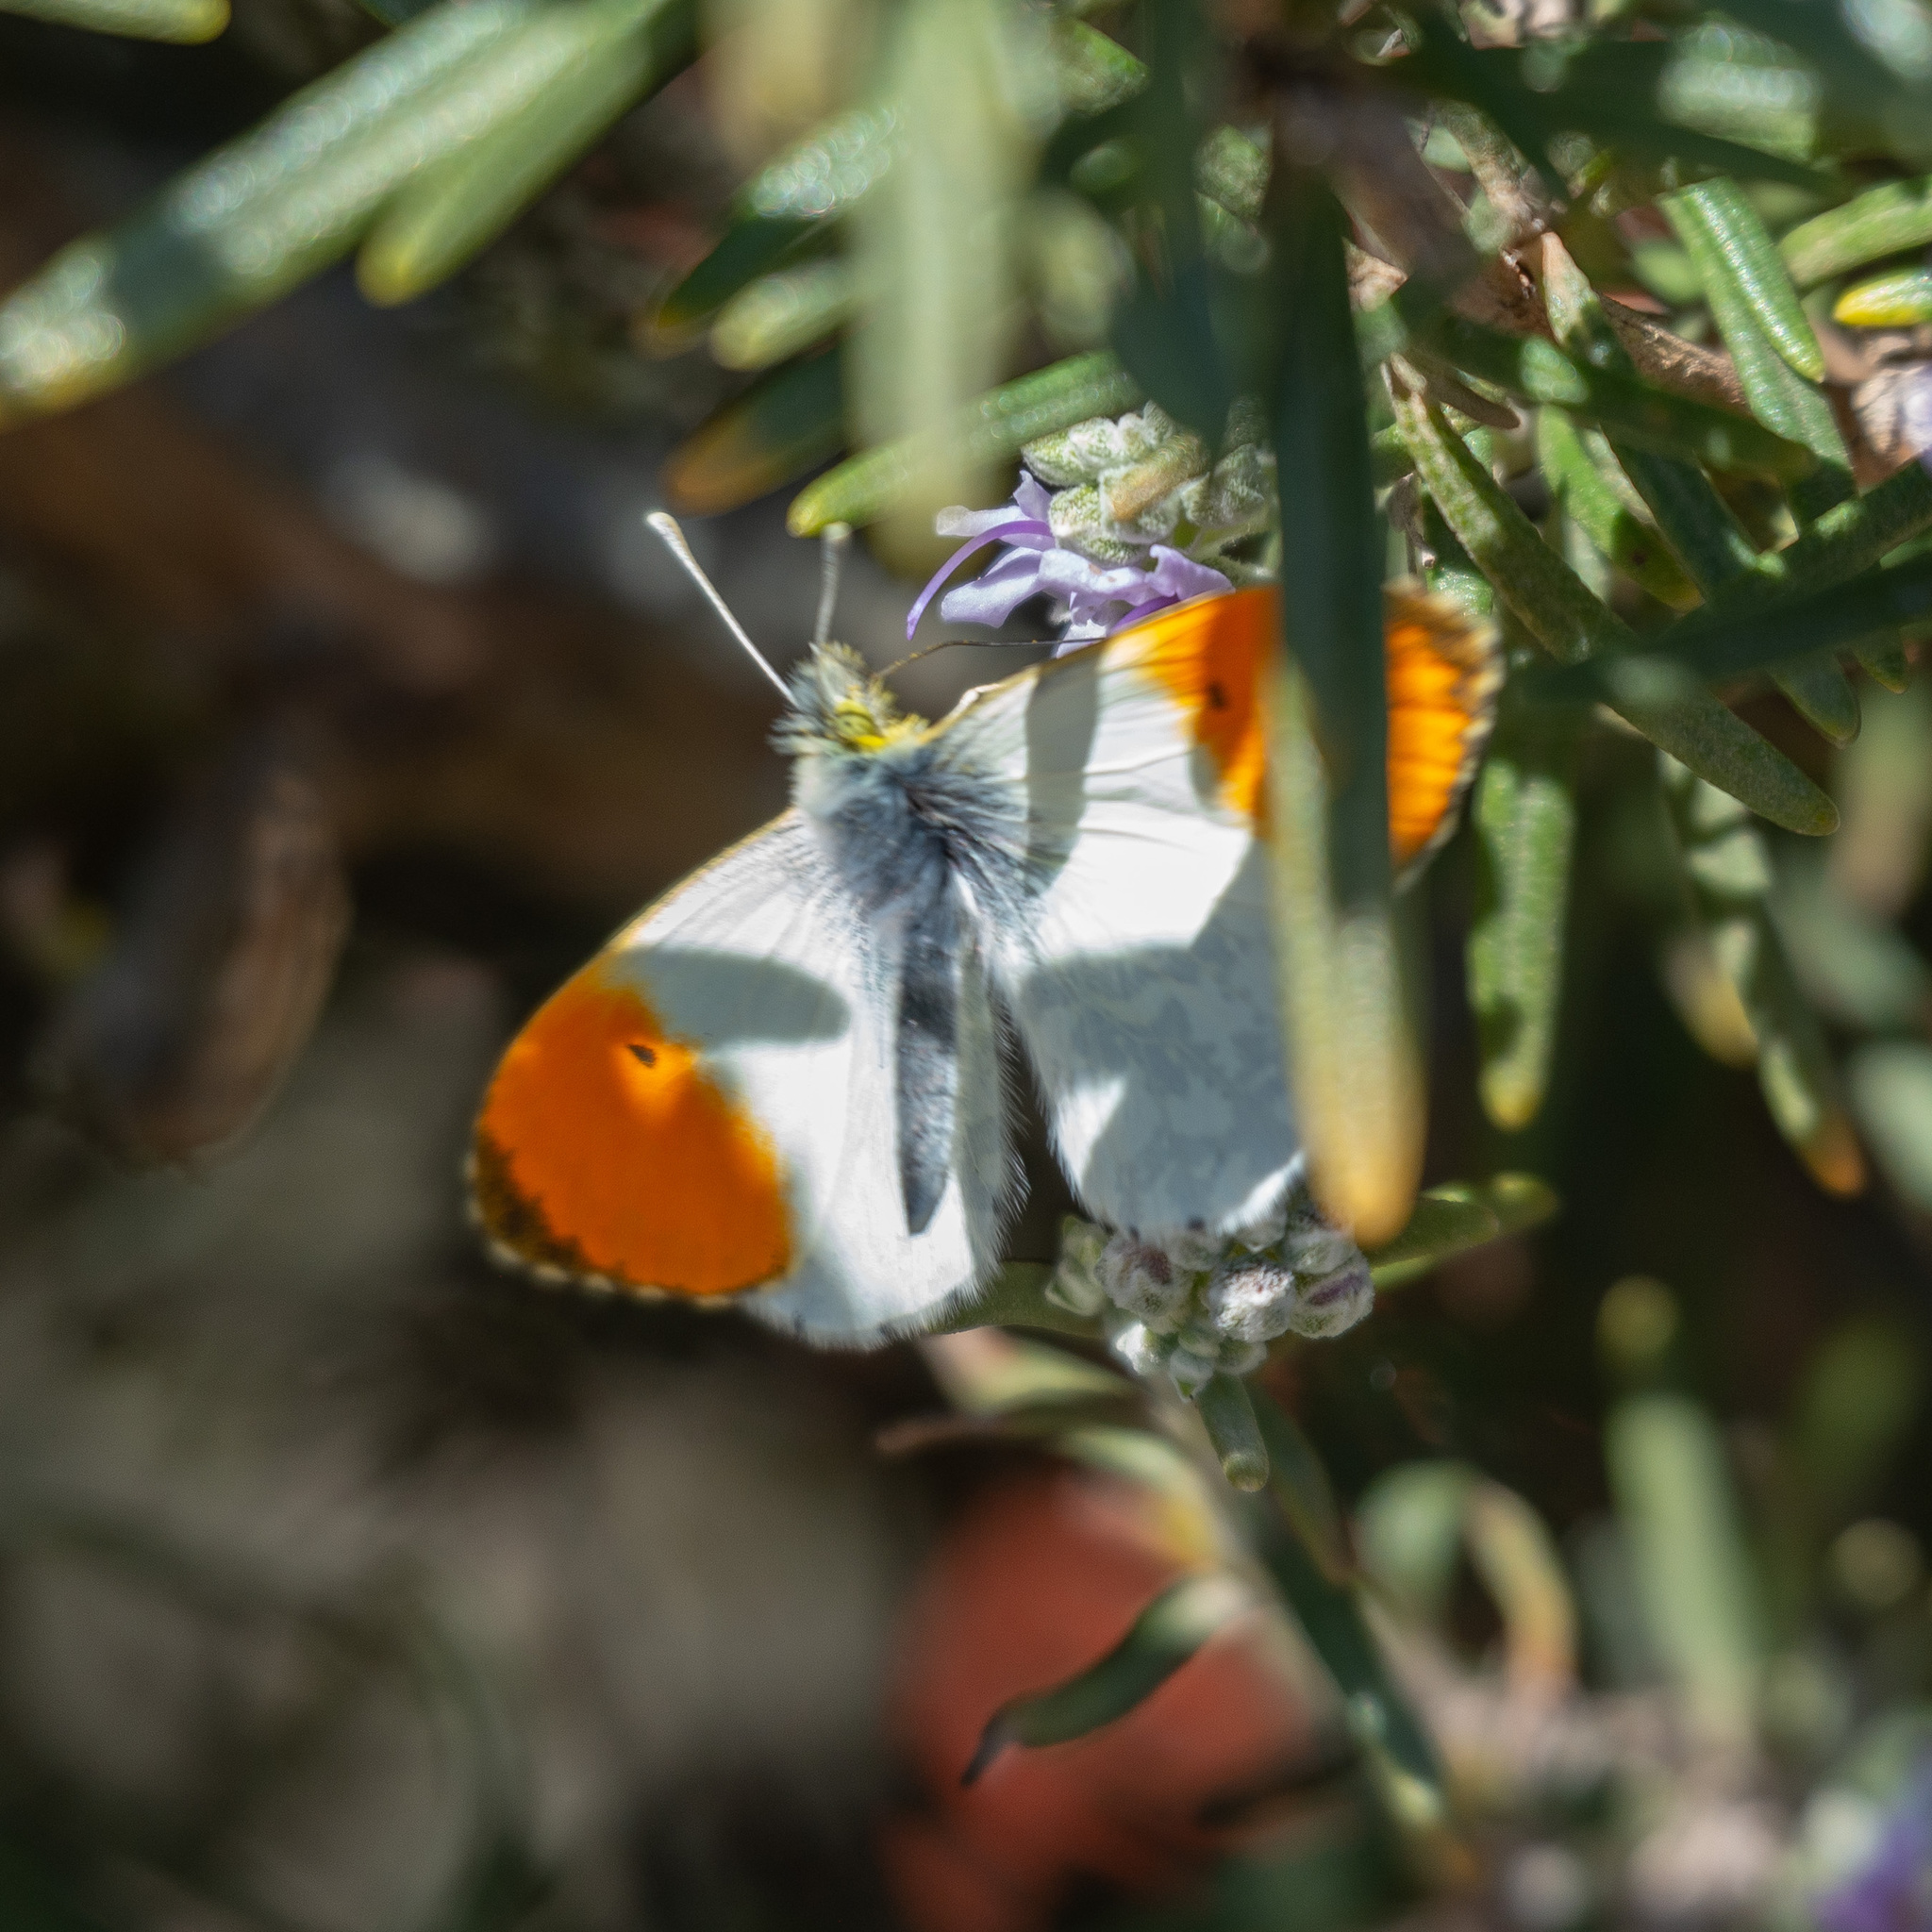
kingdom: Animalia
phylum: Arthropoda
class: Insecta
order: Lepidoptera
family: Pieridae
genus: Anthocharis
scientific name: Anthocharis cardamines
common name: Orange-tip
